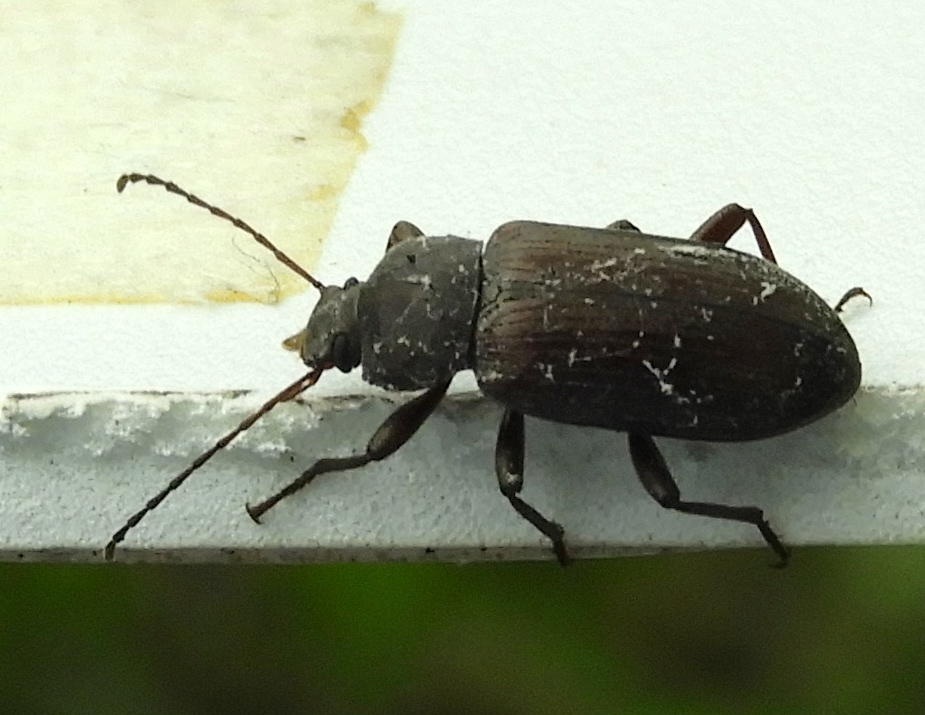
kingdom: Animalia
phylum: Arthropoda
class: Insecta
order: Coleoptera
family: Helopii
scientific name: Helopii
